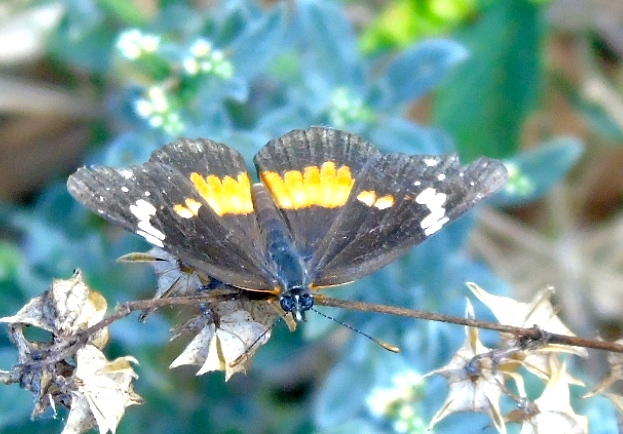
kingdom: Animalia
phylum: Arthropoda
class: Insecta
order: Lepidoptera
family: Nymphalidae
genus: Chlosyne
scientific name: Chlosyne lacinia
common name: Bordered patch
